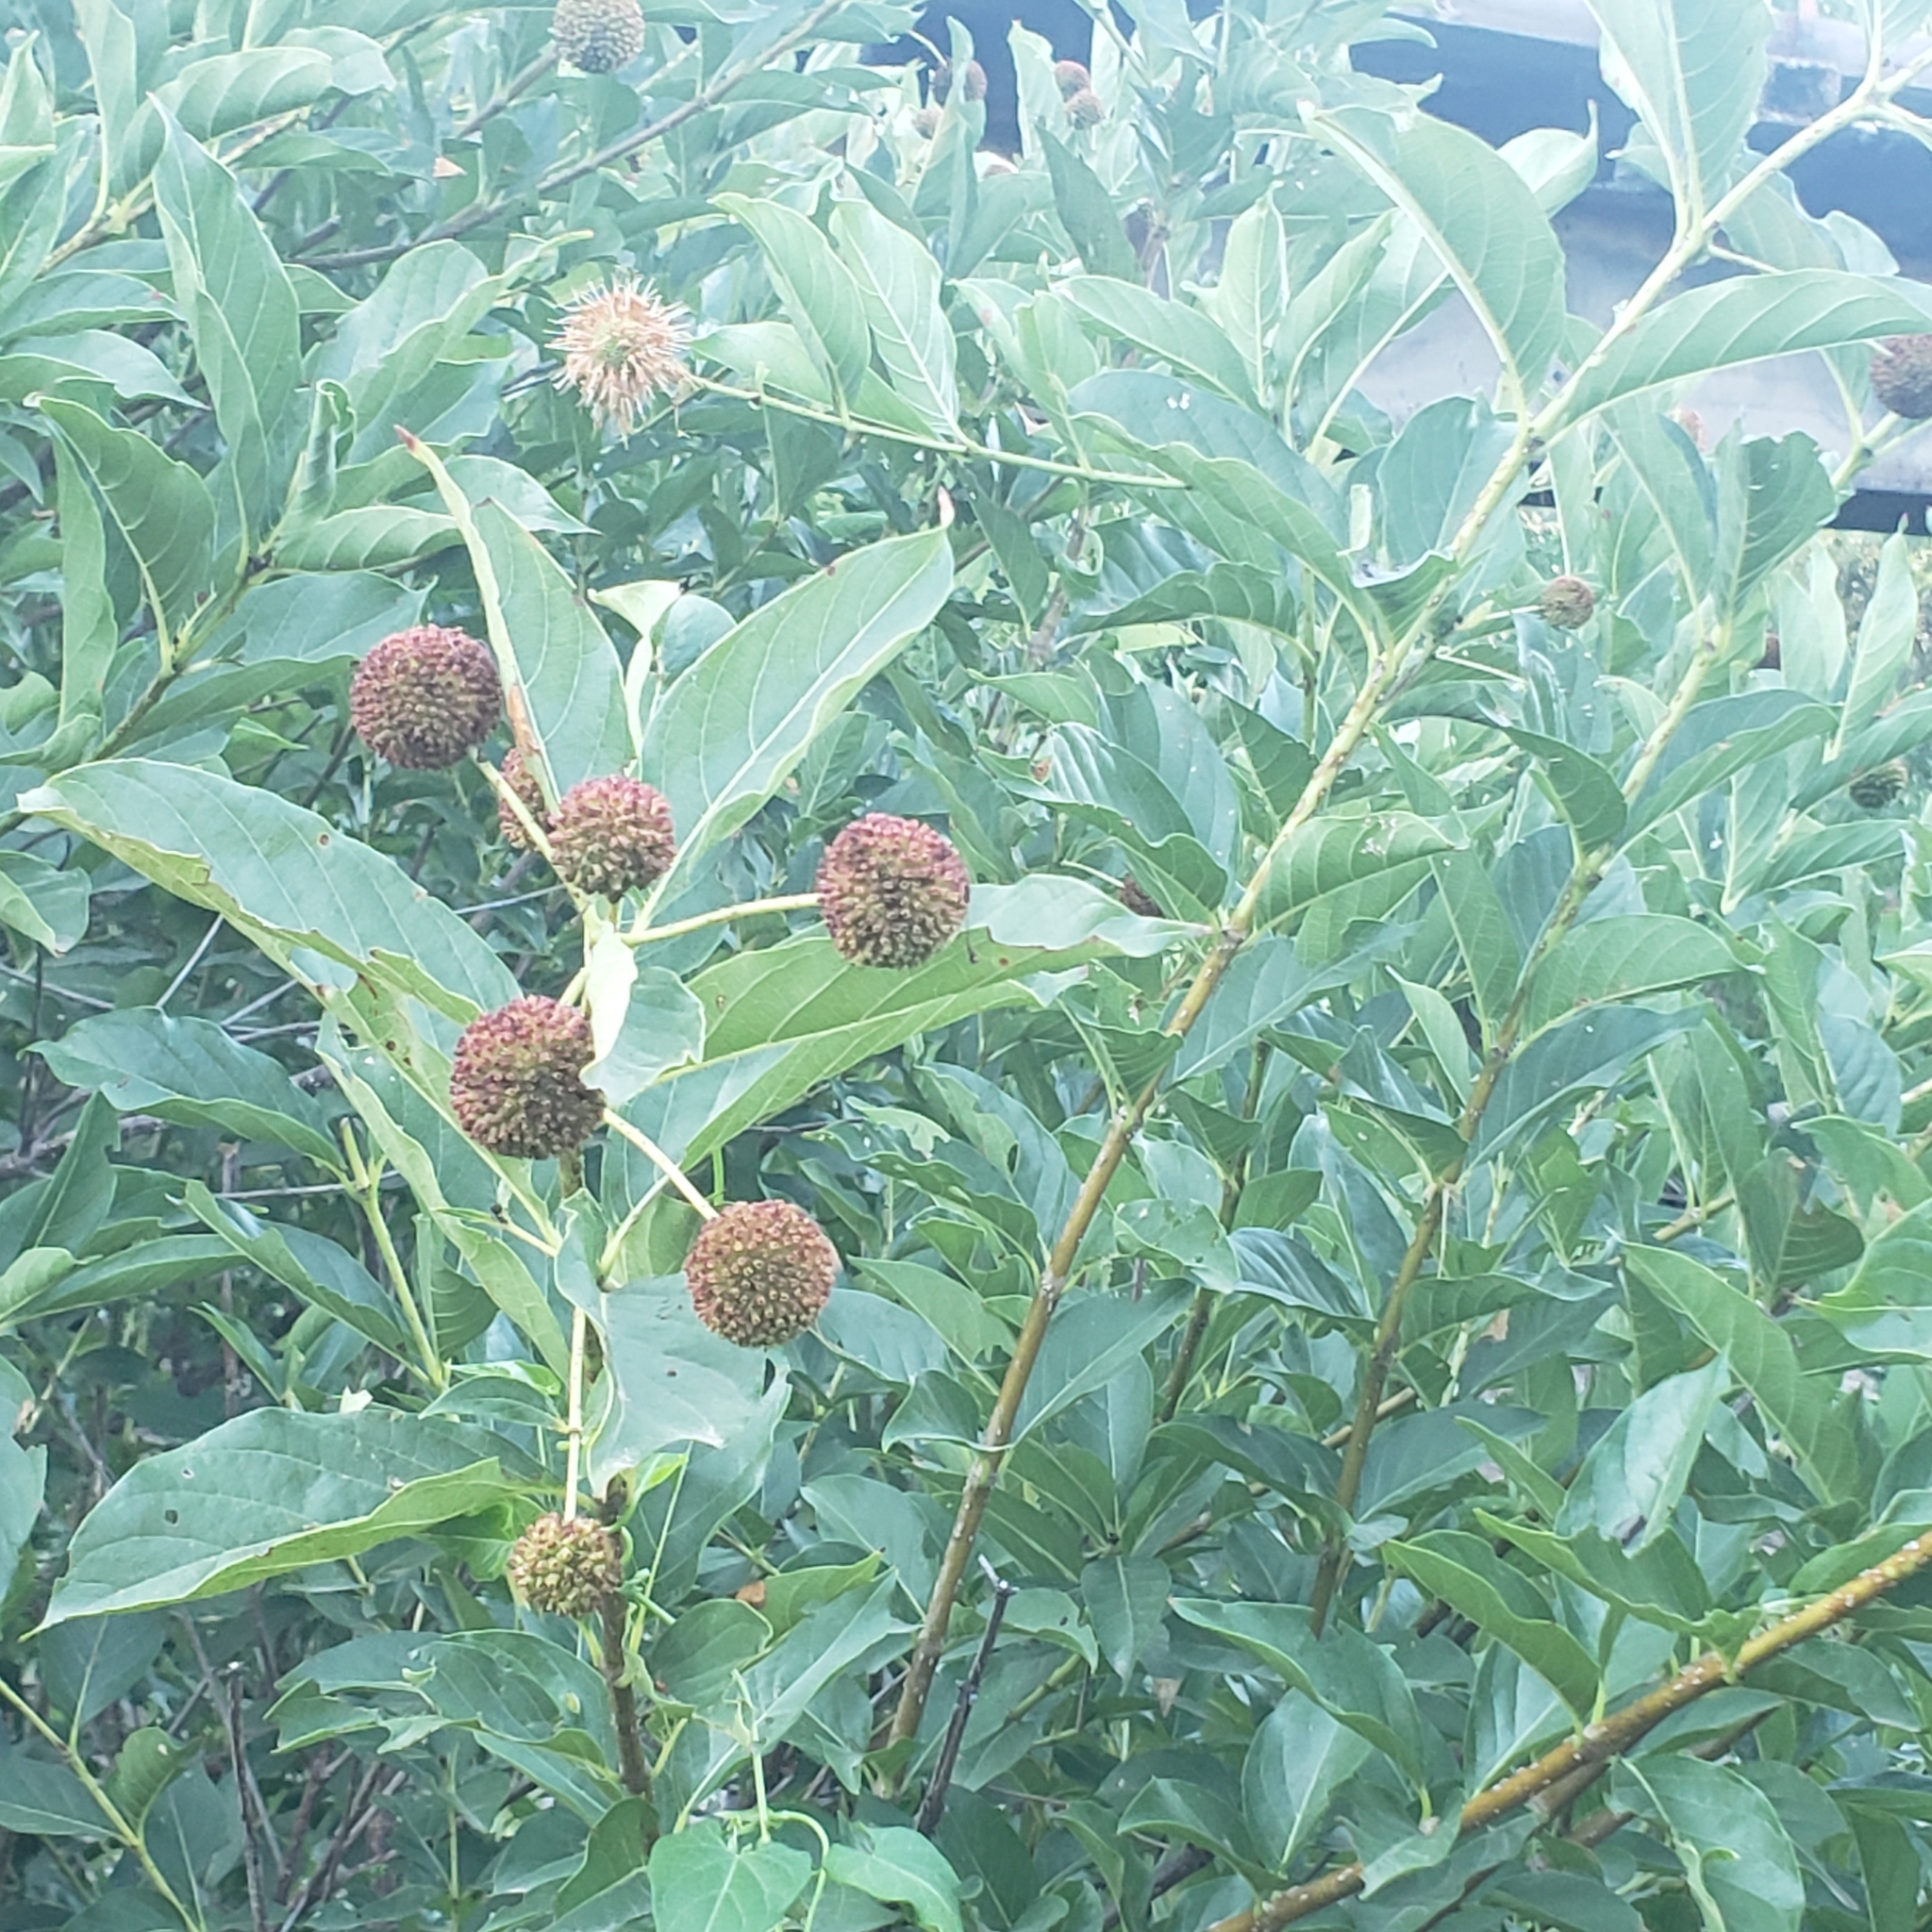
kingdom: Plantae
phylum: Tracheophyta
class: Magnoliopsida
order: Gentianales
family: Rubiaceae
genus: Cephalanthus
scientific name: Cephalanthus occidentalis
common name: Button-willow
